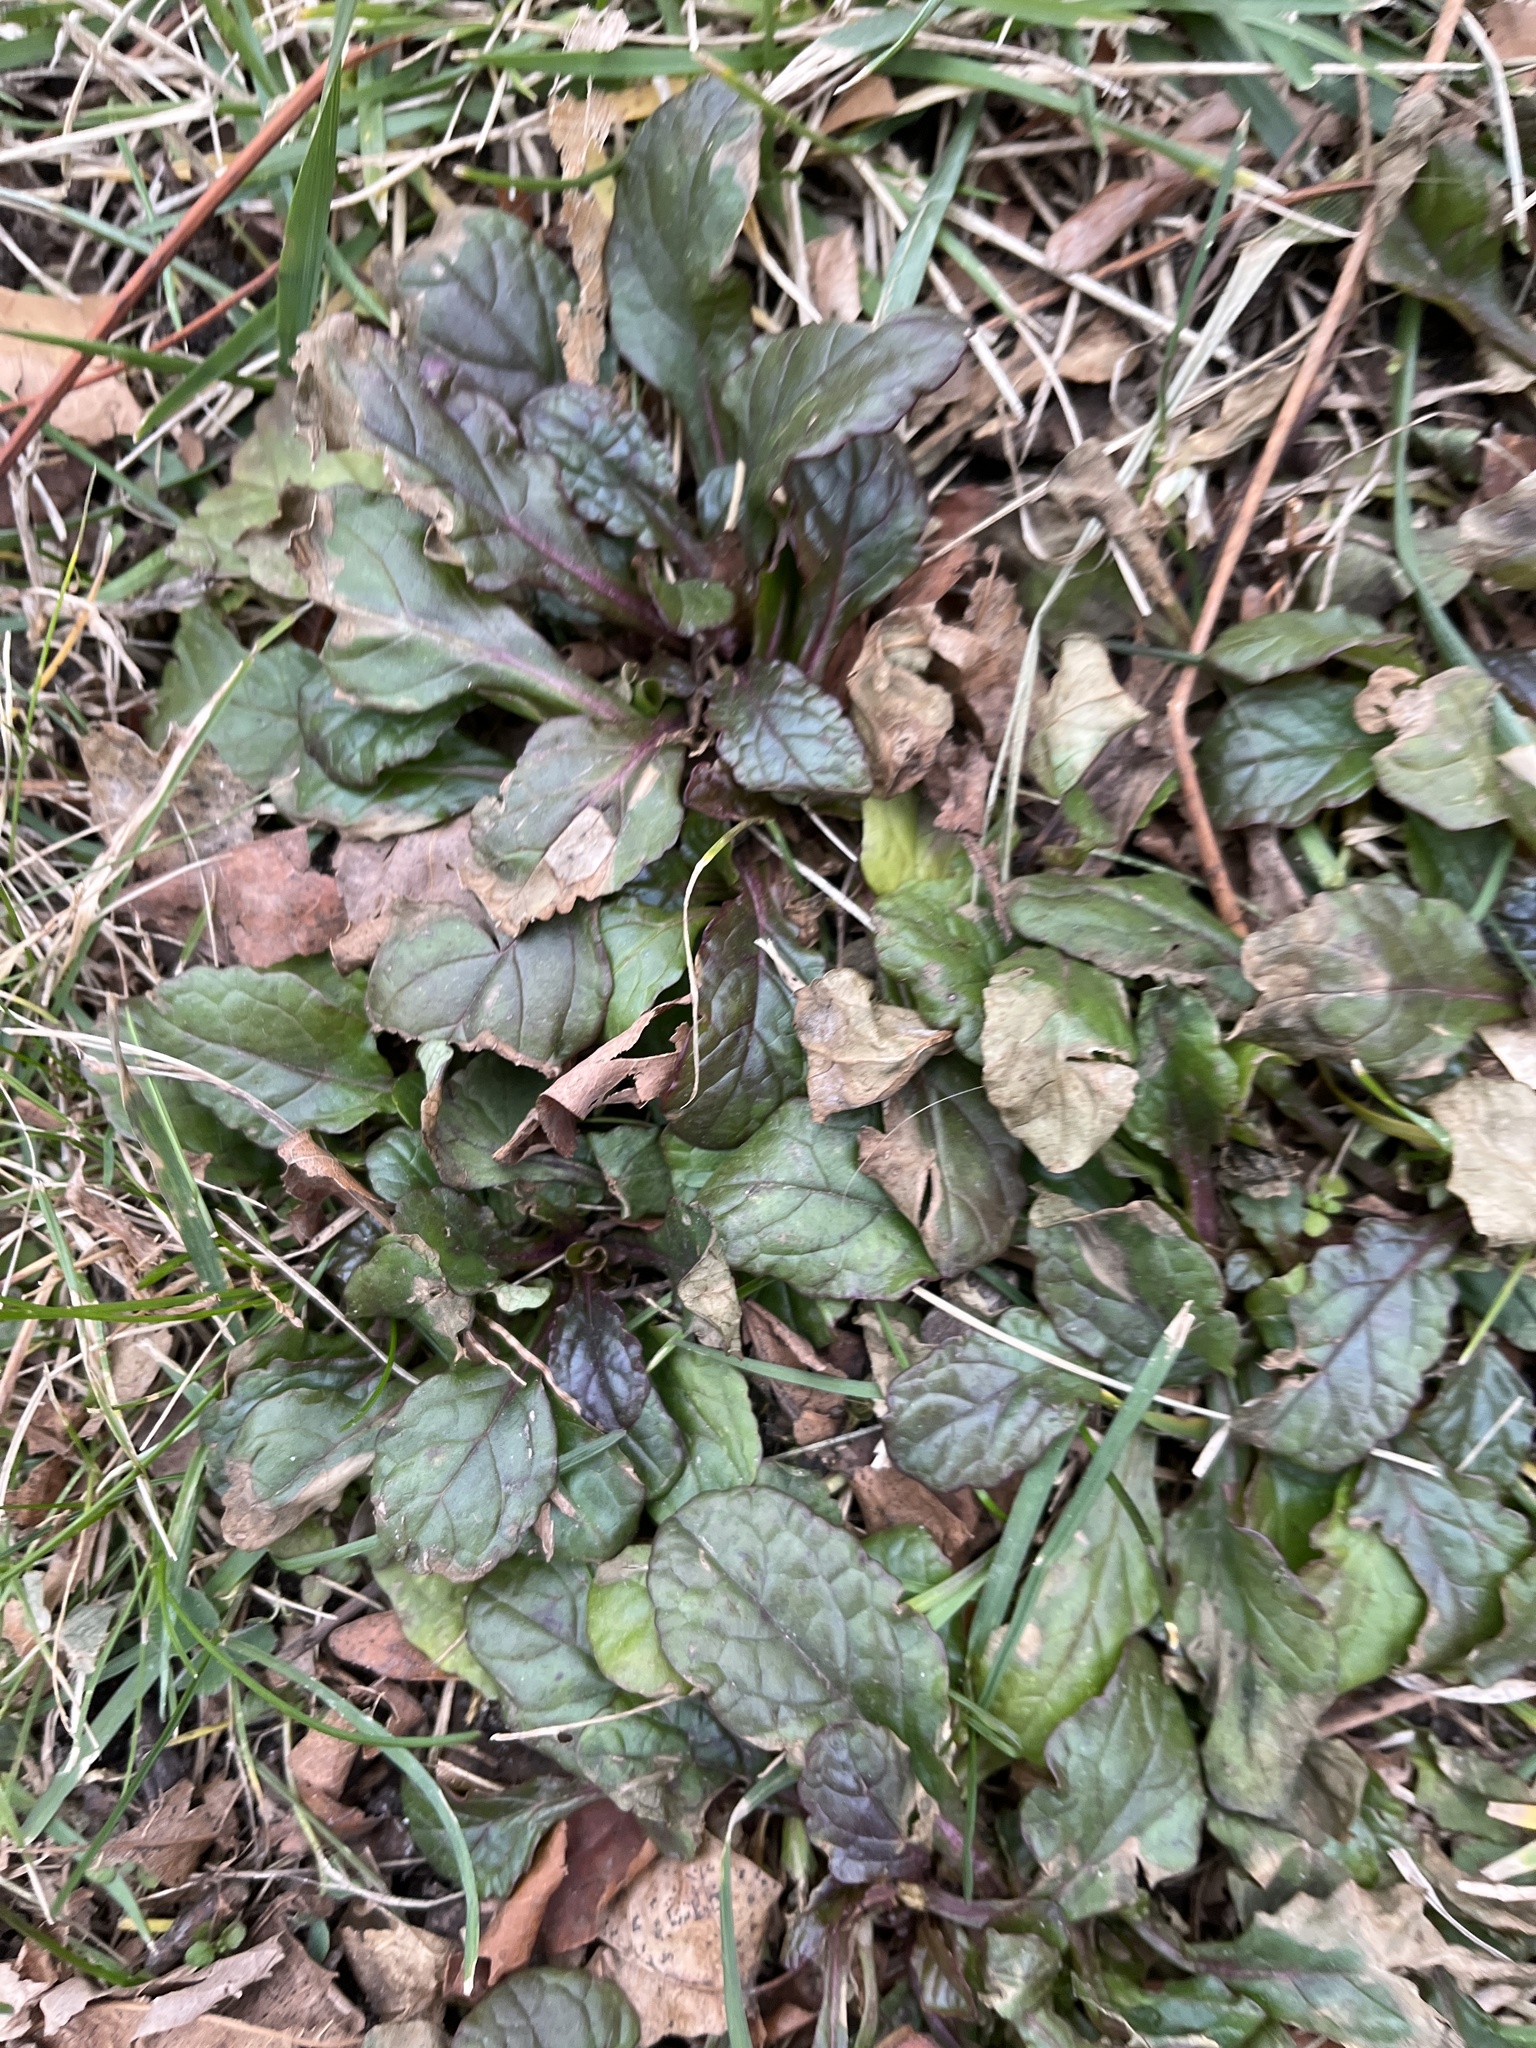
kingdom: Plantae
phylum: Tracheophyta
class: Magnoliopsida
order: Lamiales
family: Lamiaceae
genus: Ajuga
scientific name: Ajuga reptans
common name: Bugle
